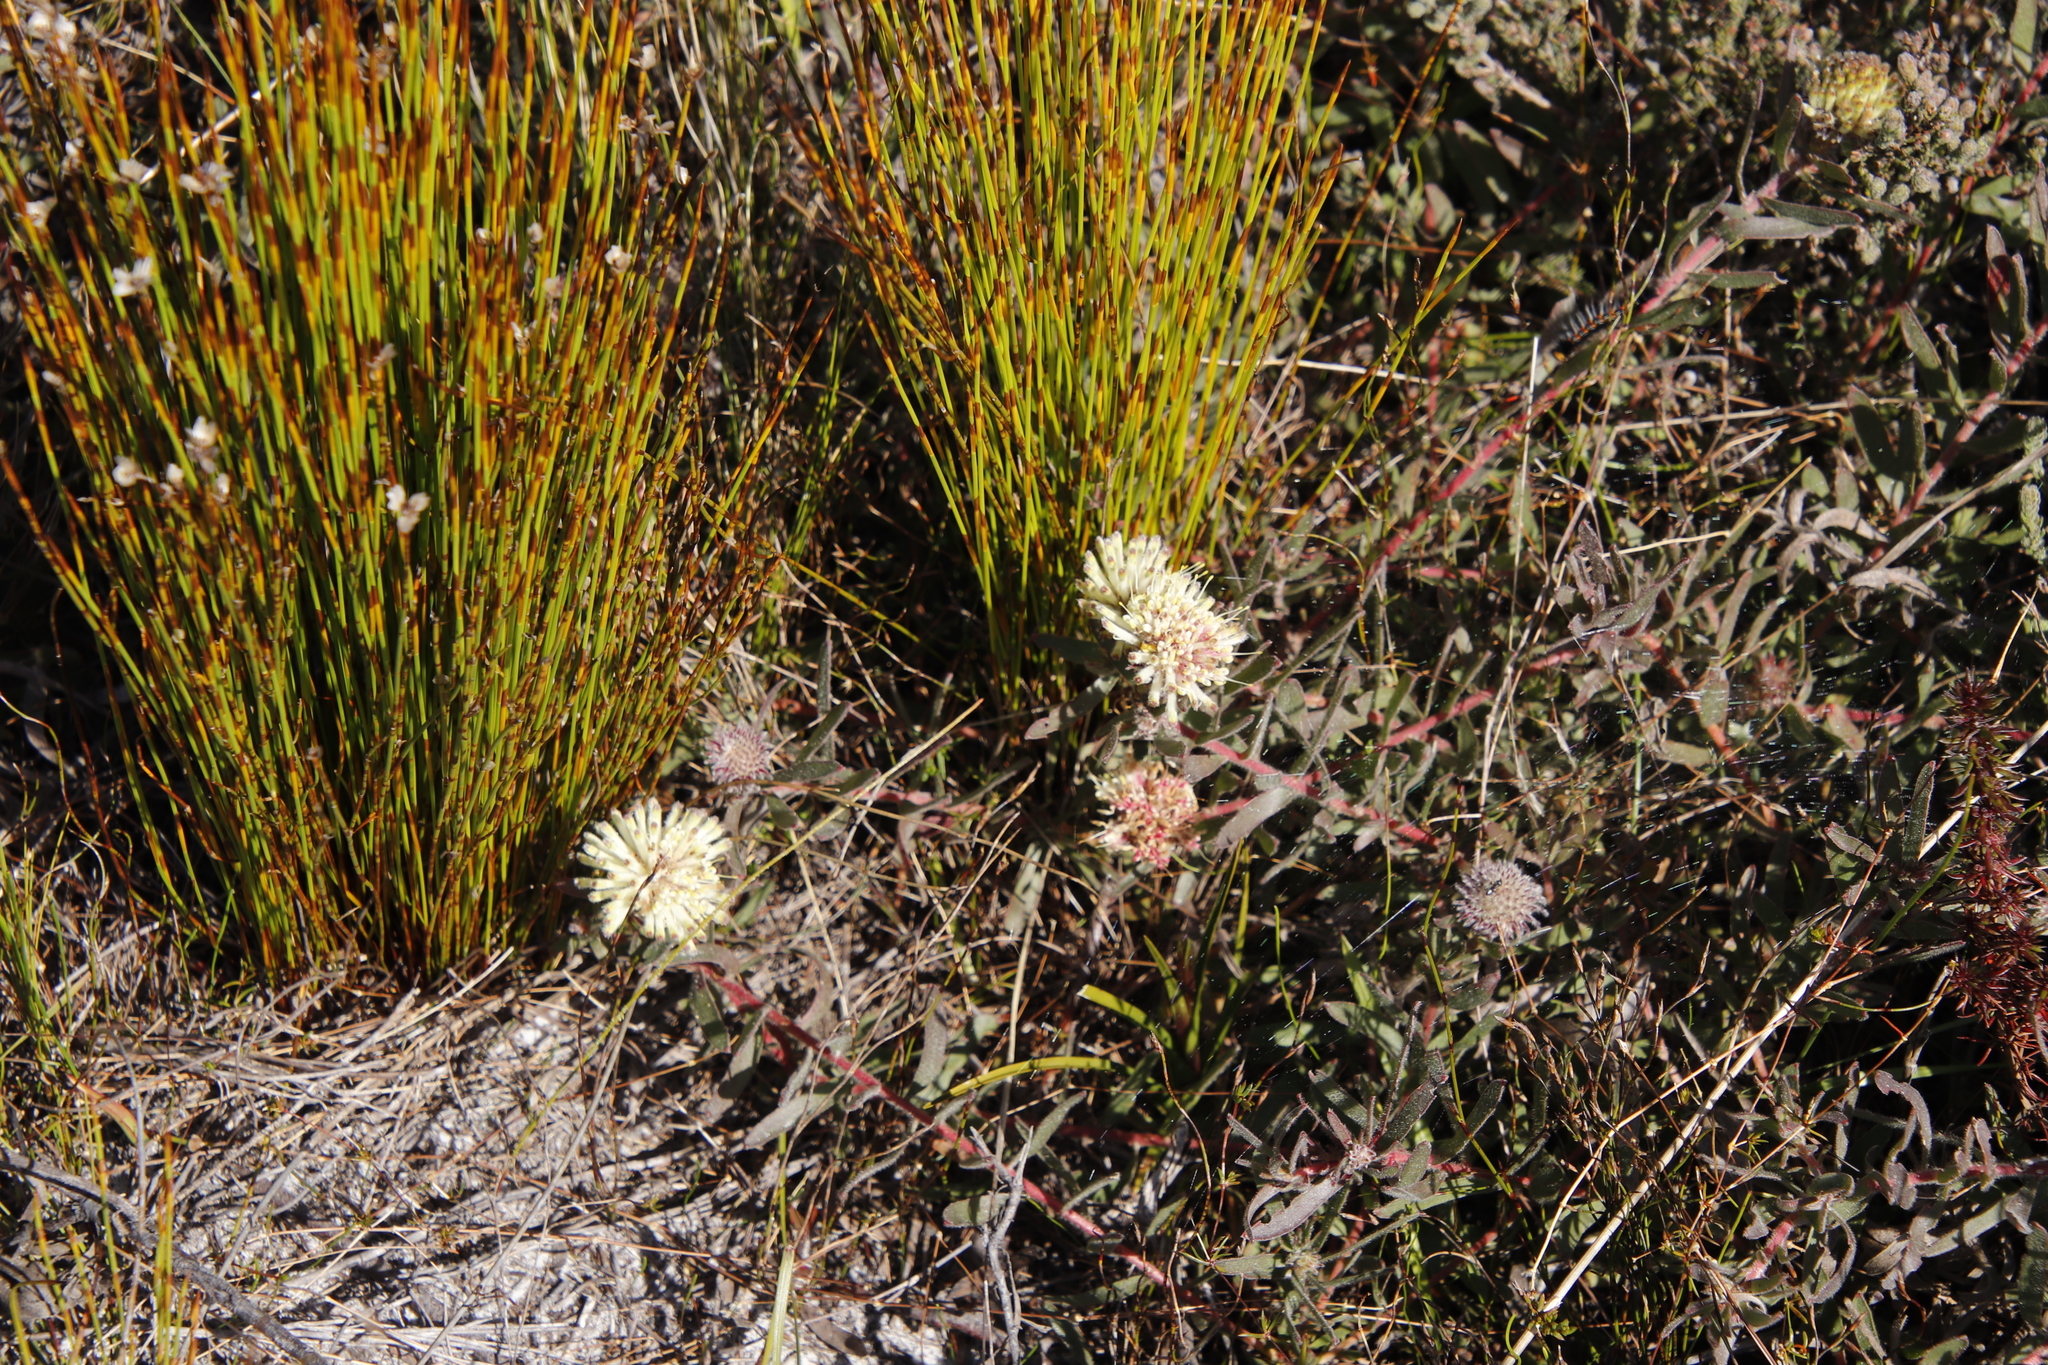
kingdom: Plantae
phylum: Tracheophyta
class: Magnoliopsida
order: Proteales
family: Proteaceae
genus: Leucospermum
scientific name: Leucospermum pedunculatum
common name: White-trailing pincushion
